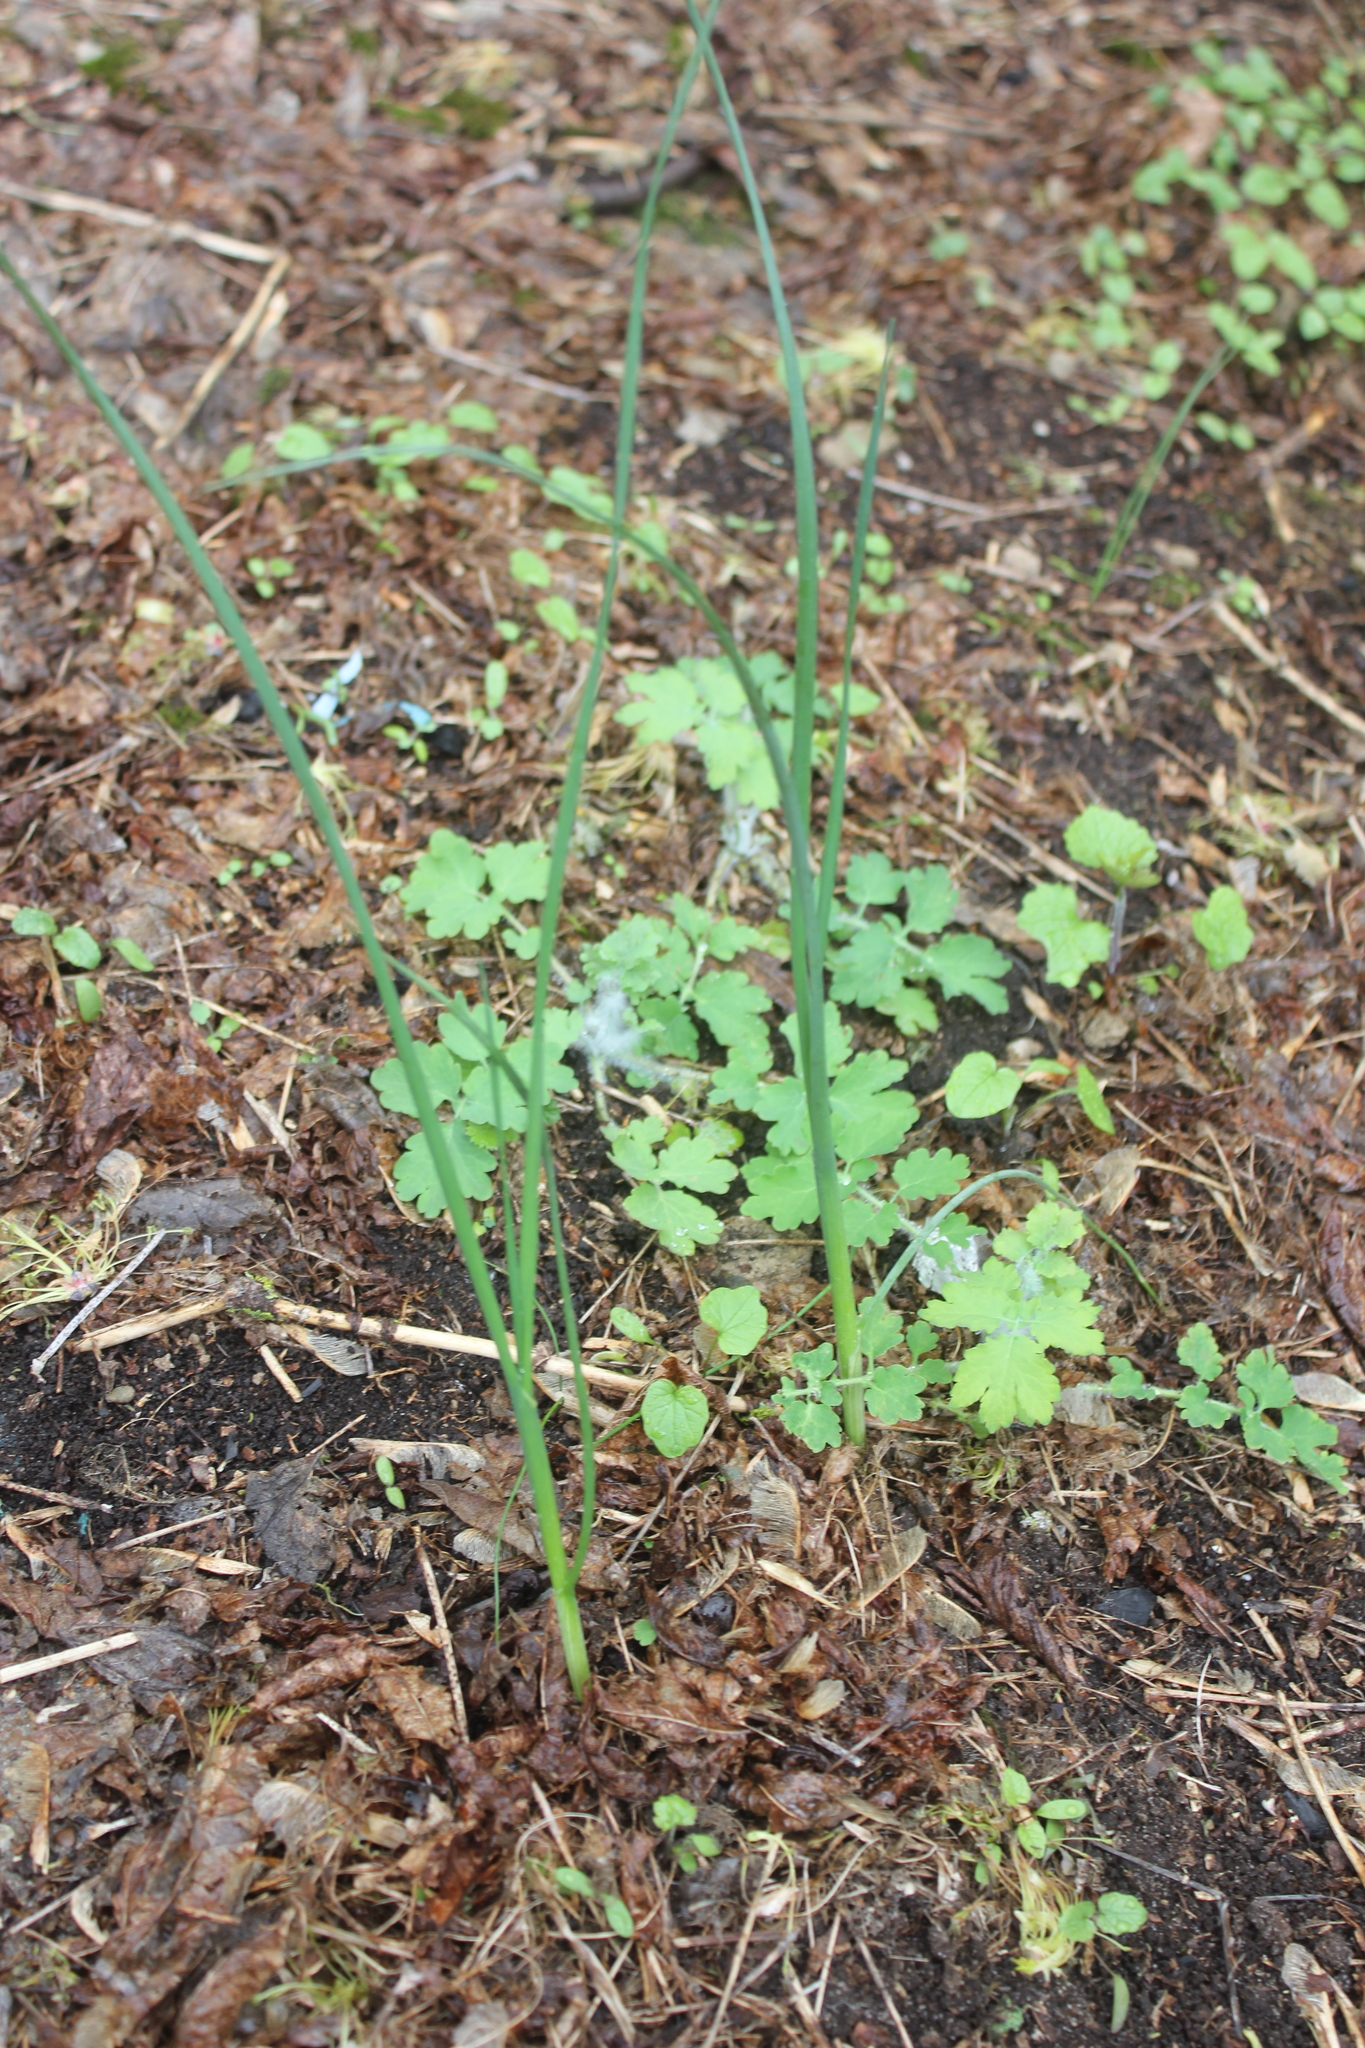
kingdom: Plantae
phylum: Tracheophyta
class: Liliopsida
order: Asparagales
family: Amaryllidaceae
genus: Allium
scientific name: Allium oleraceum
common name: Field garlic
